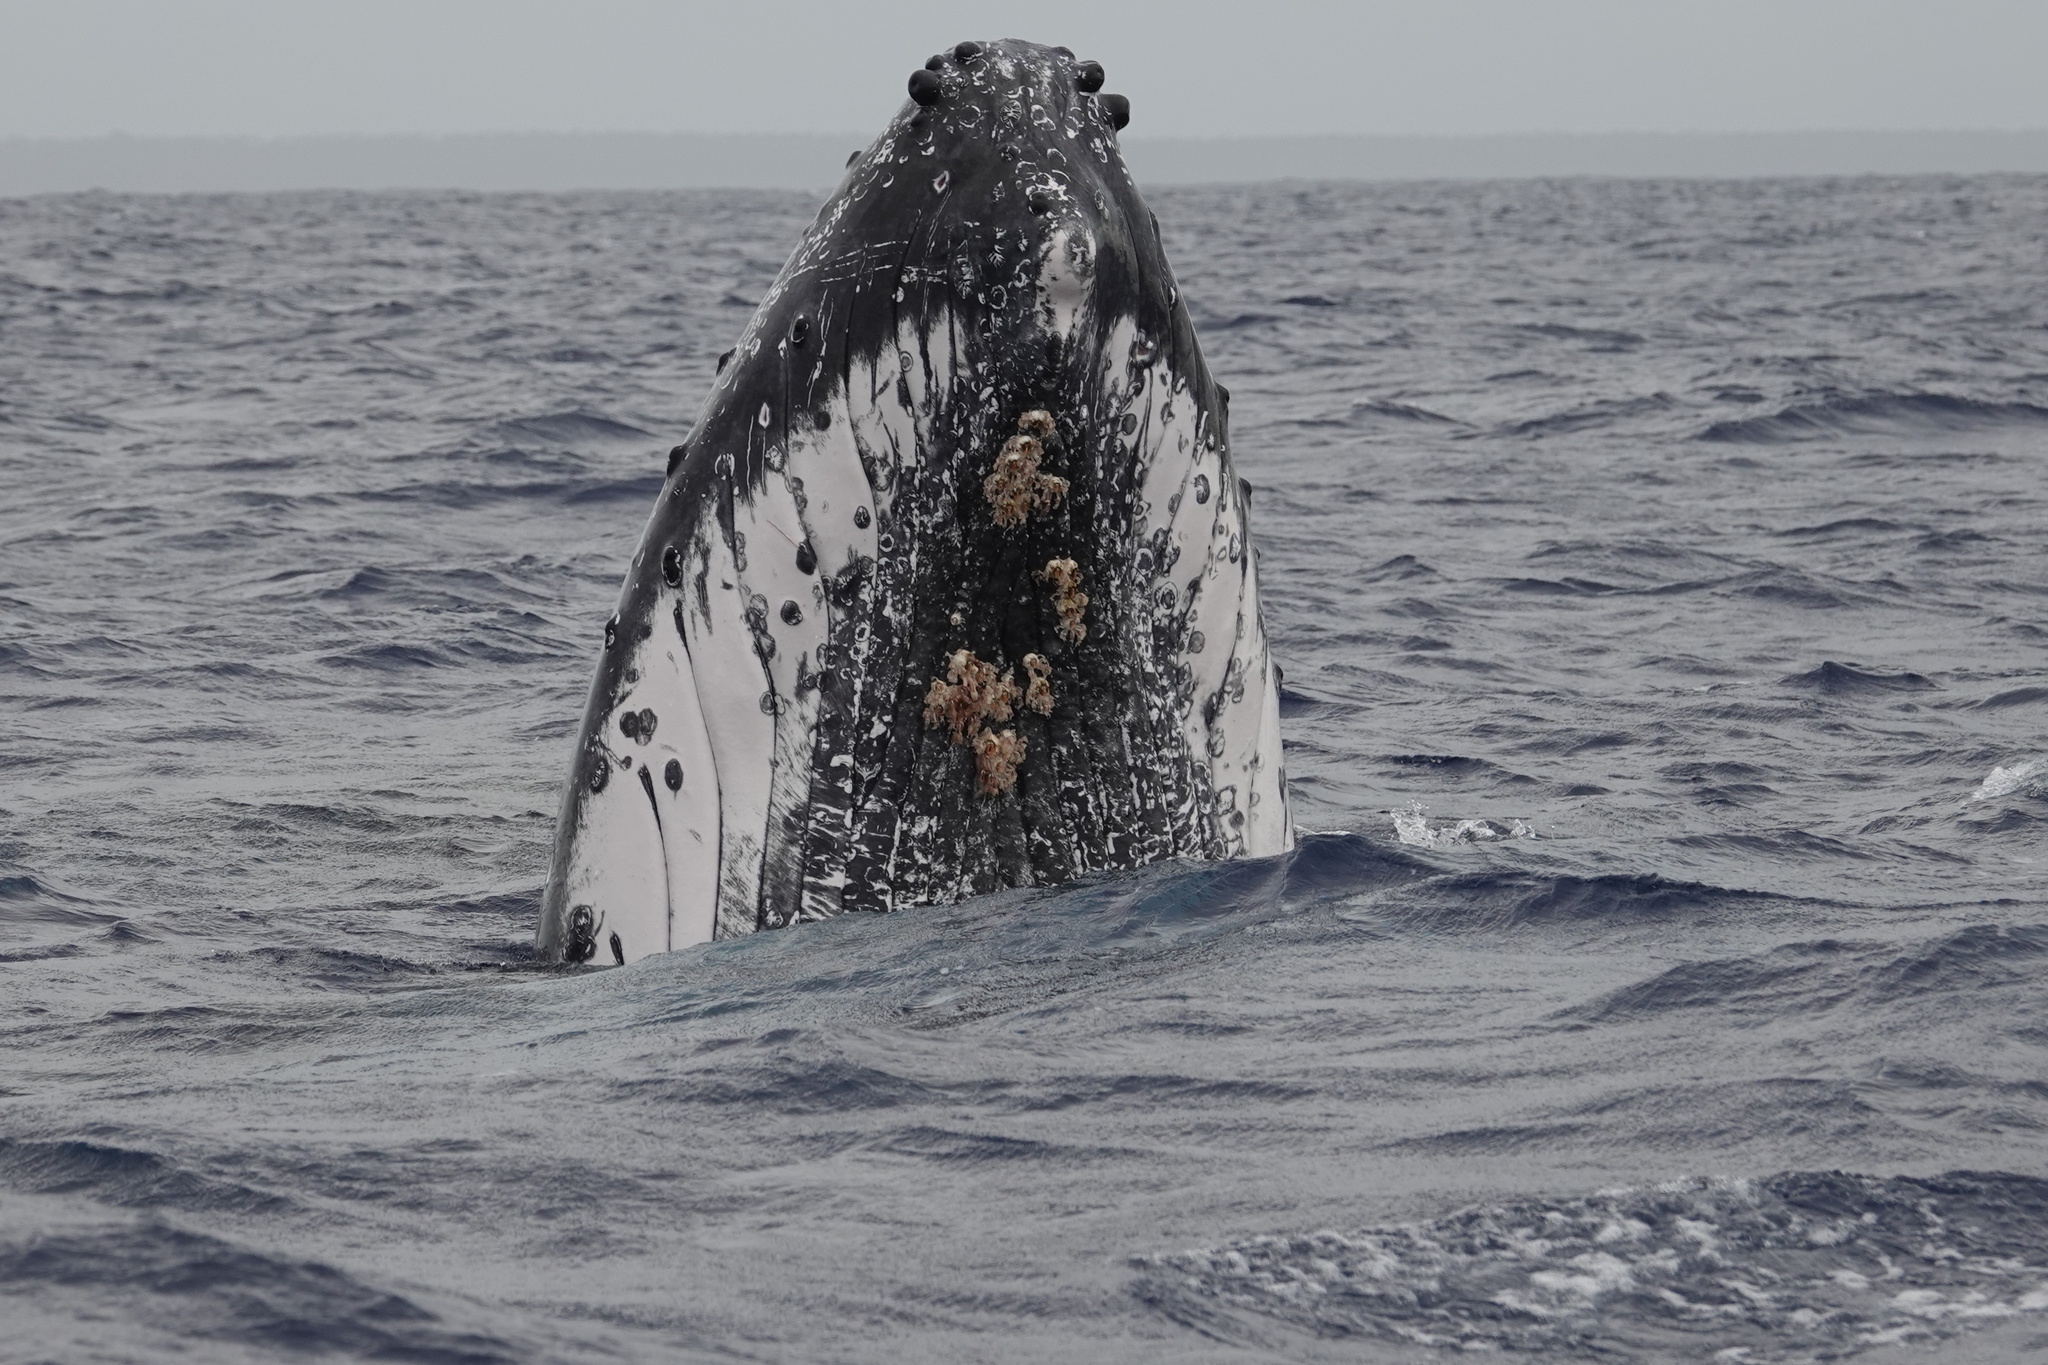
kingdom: Animalia
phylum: Chordata
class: Mammalia
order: Cetacea
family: Balaenopteridae
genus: Megaptera
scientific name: Megaptera novaeangliae
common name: Humpback whale
